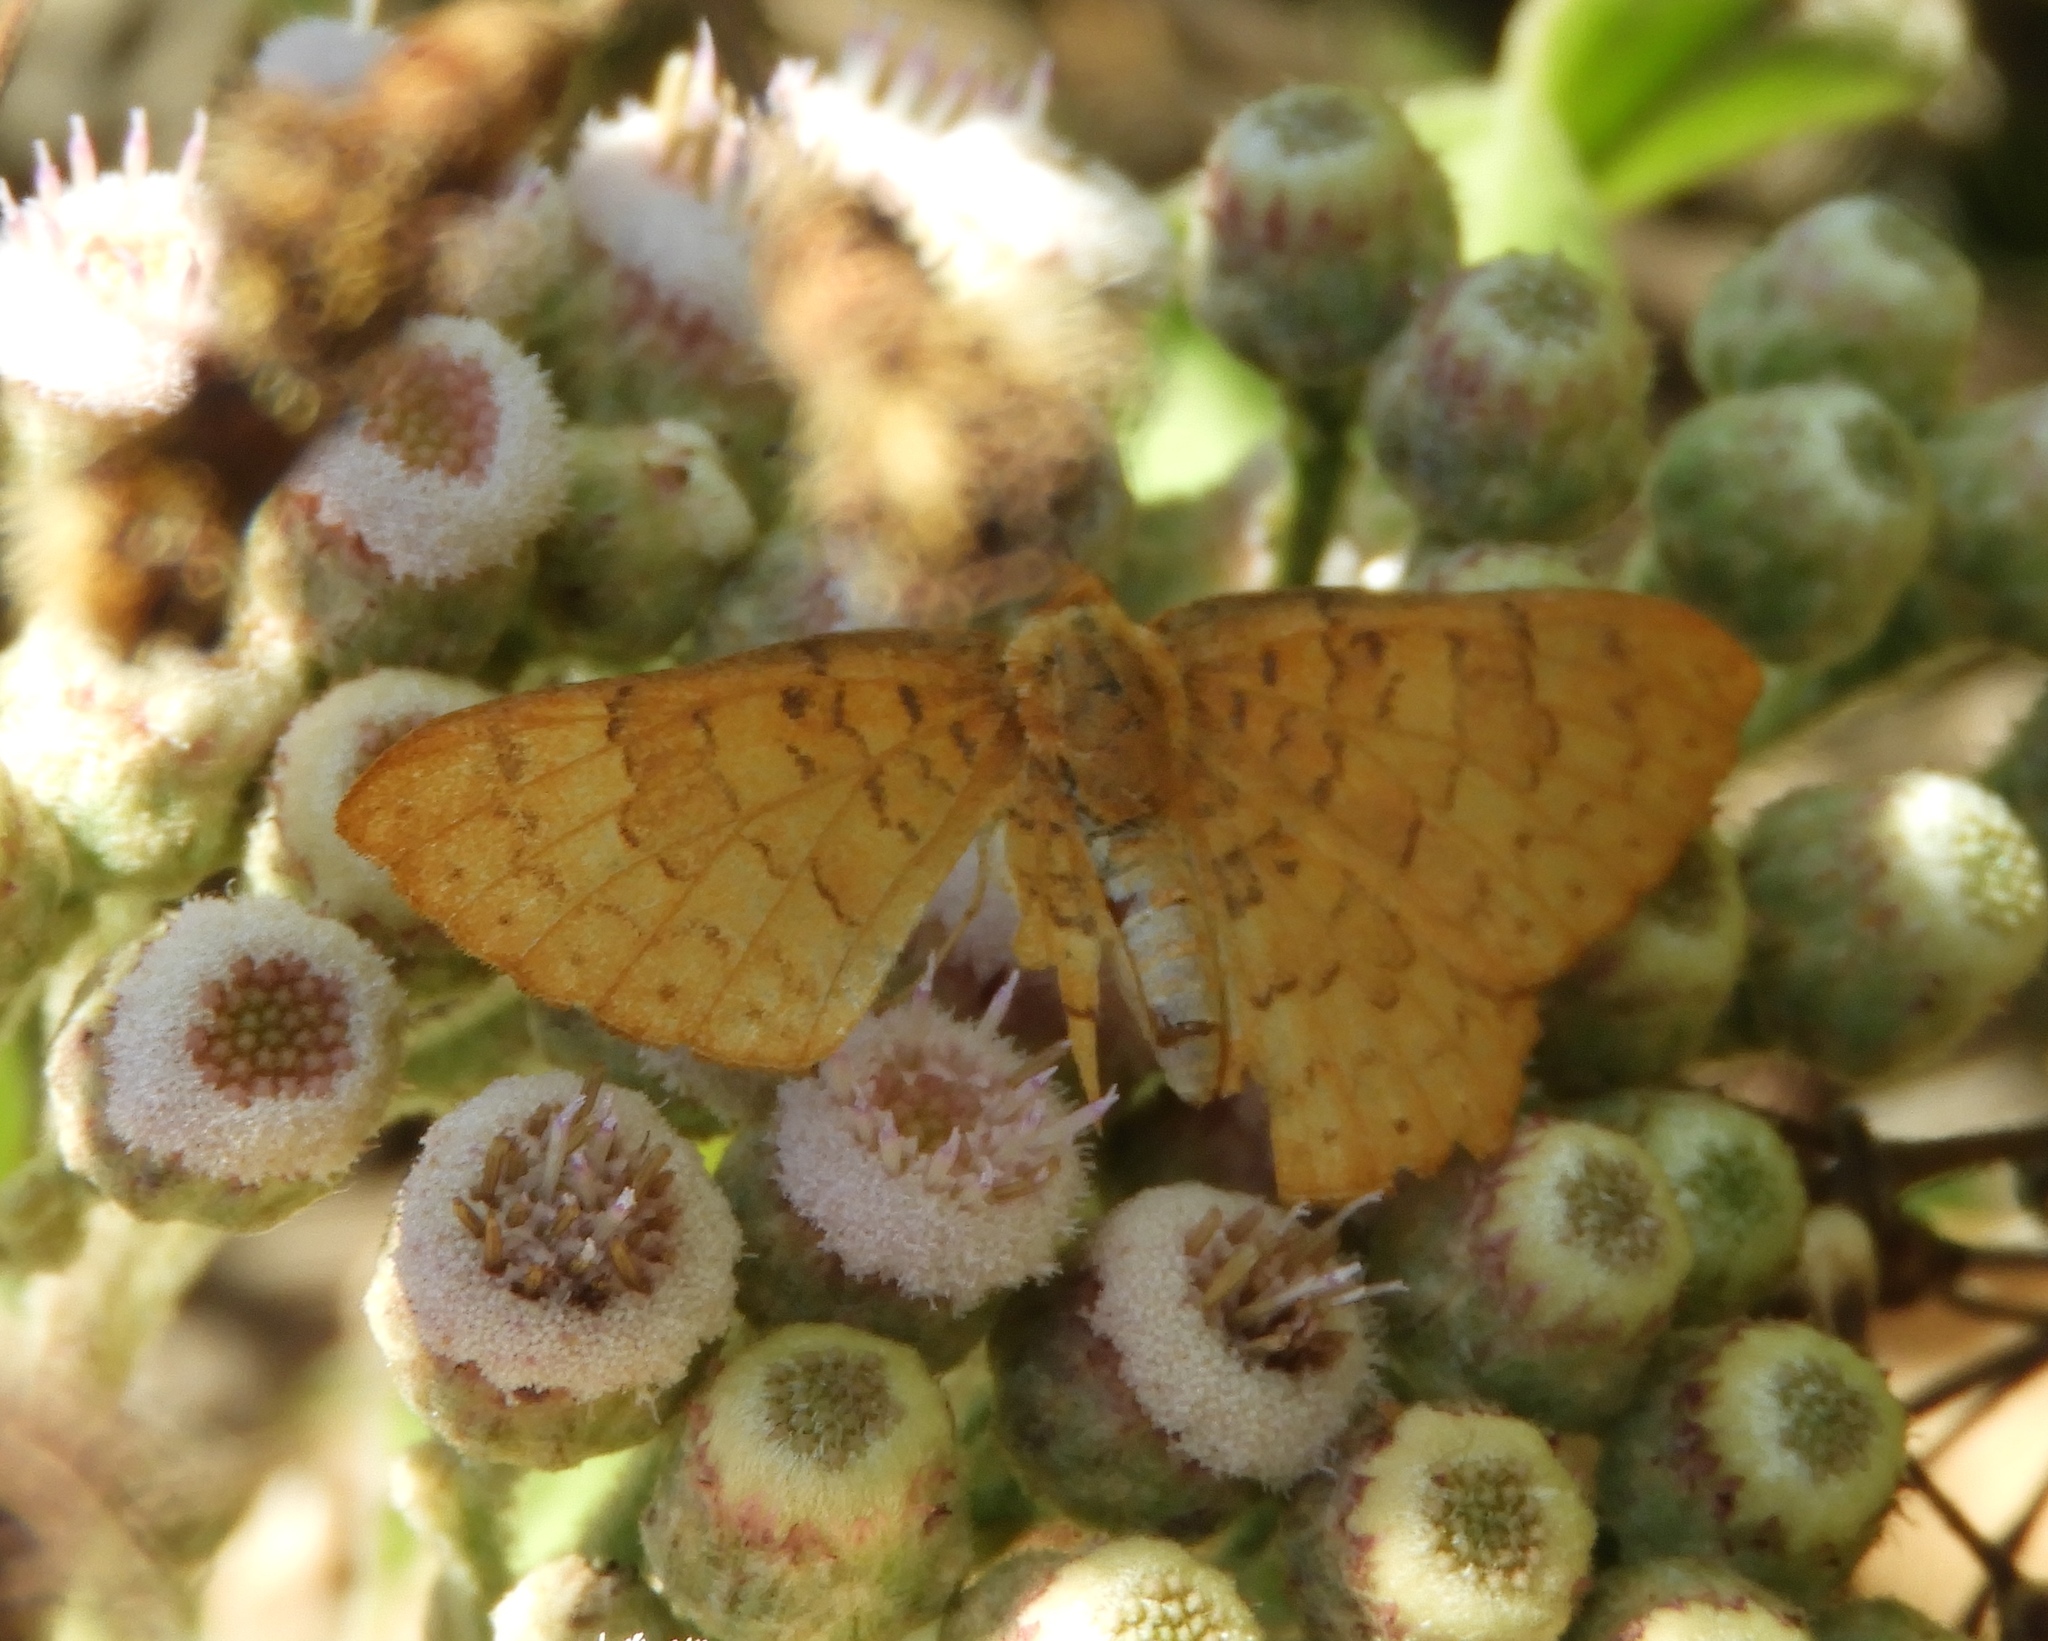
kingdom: Animalia
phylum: Arthropoda
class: Insecta
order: Lepidoptera
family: Lycaenidae
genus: Emesis
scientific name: Emesis
